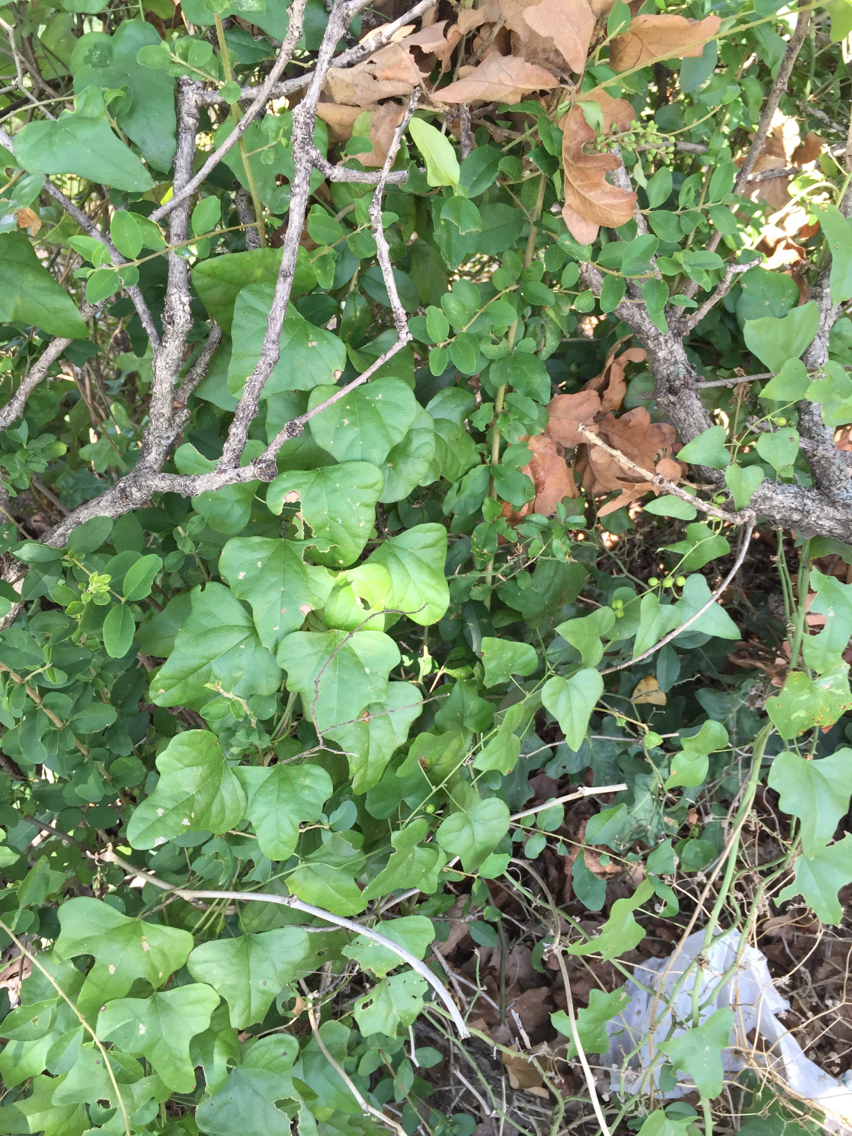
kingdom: Plantae
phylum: Tracheophyta
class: Magnoliopsida
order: Ranunculales
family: Menispermaceae
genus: Cocculus
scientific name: Cocculus carolinus
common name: Carolina moonseed
